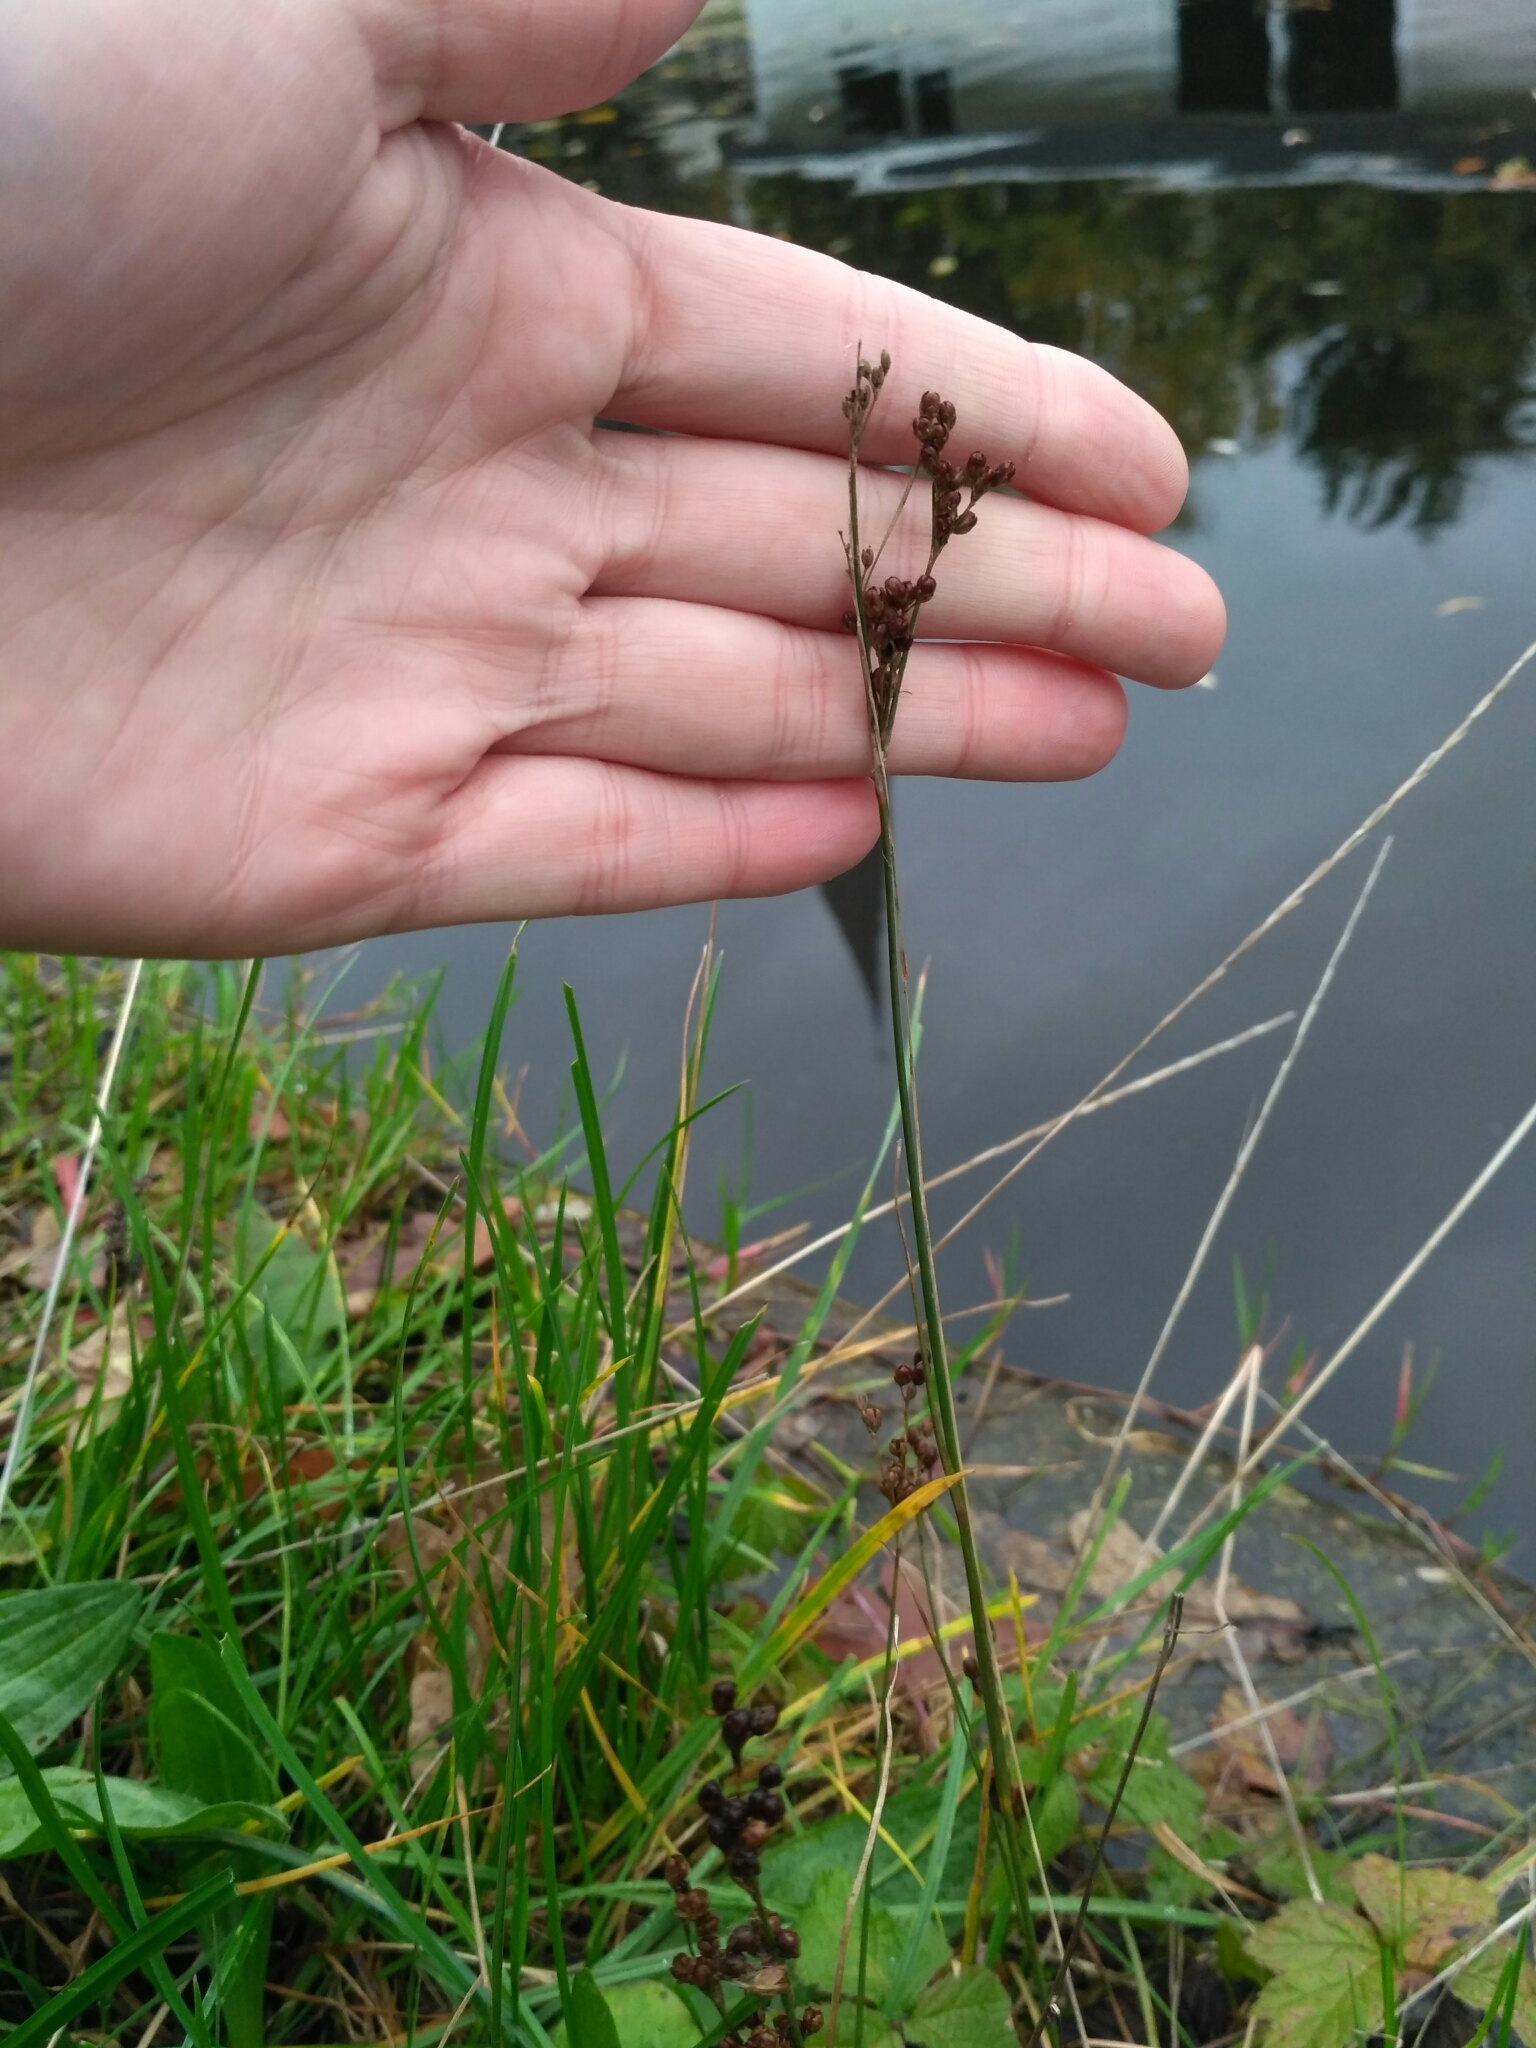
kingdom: Plantae
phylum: Tracheophyta
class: Liliopsida
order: Poales
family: Juncaceae
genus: Juncus
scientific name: Juncus compressus
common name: Round-fruited rush
